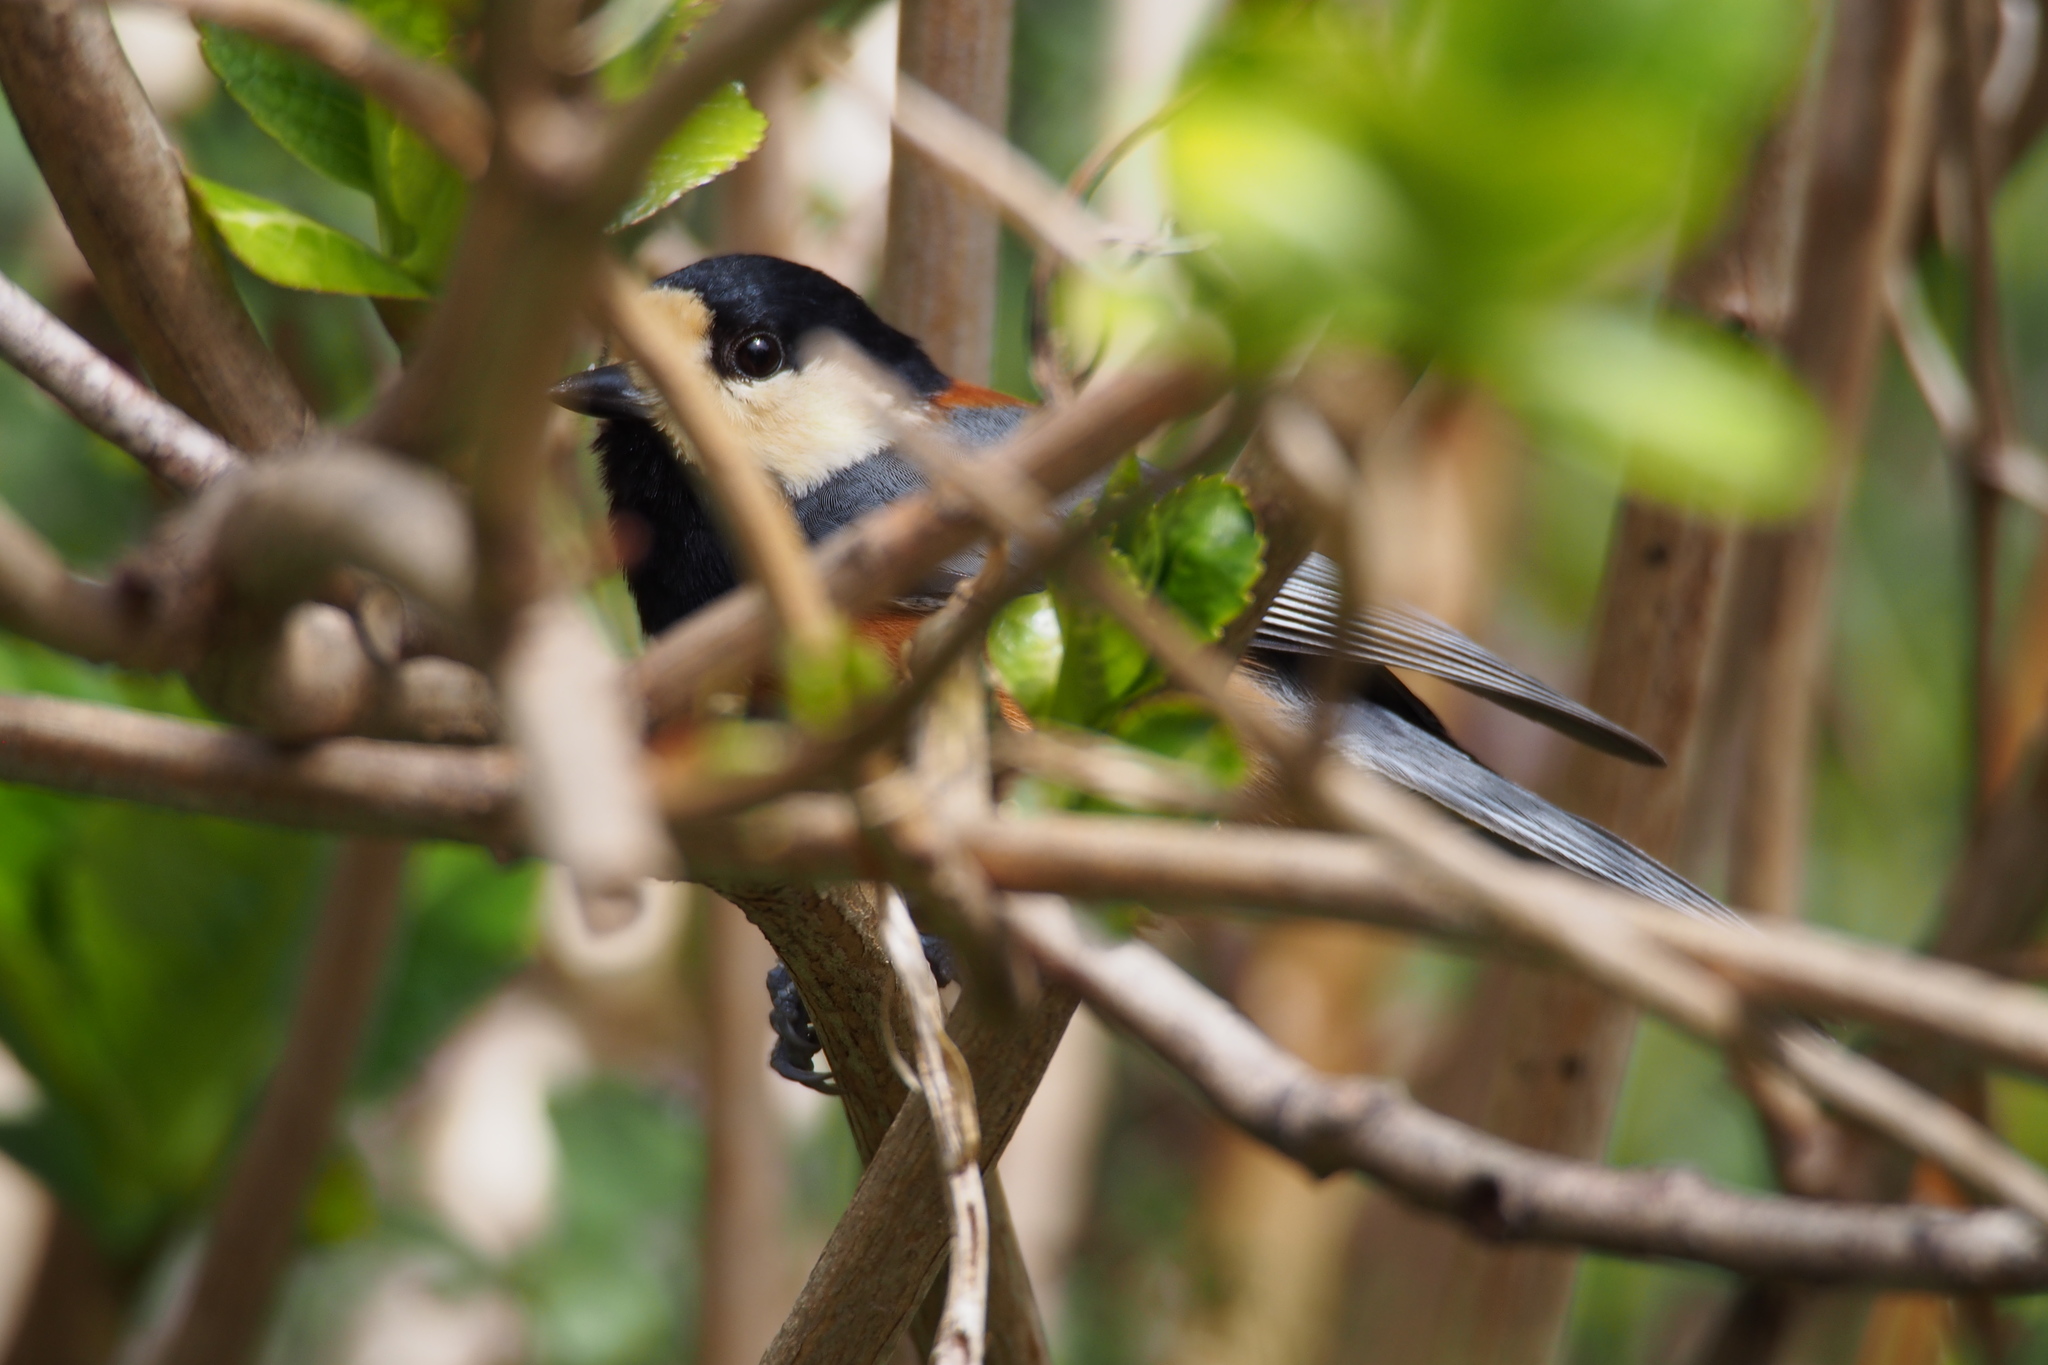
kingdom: Animalia
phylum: Chordata
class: Aves
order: Passeriformes
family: Paridae
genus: Poecile
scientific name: Poecile varius
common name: Varied tit
